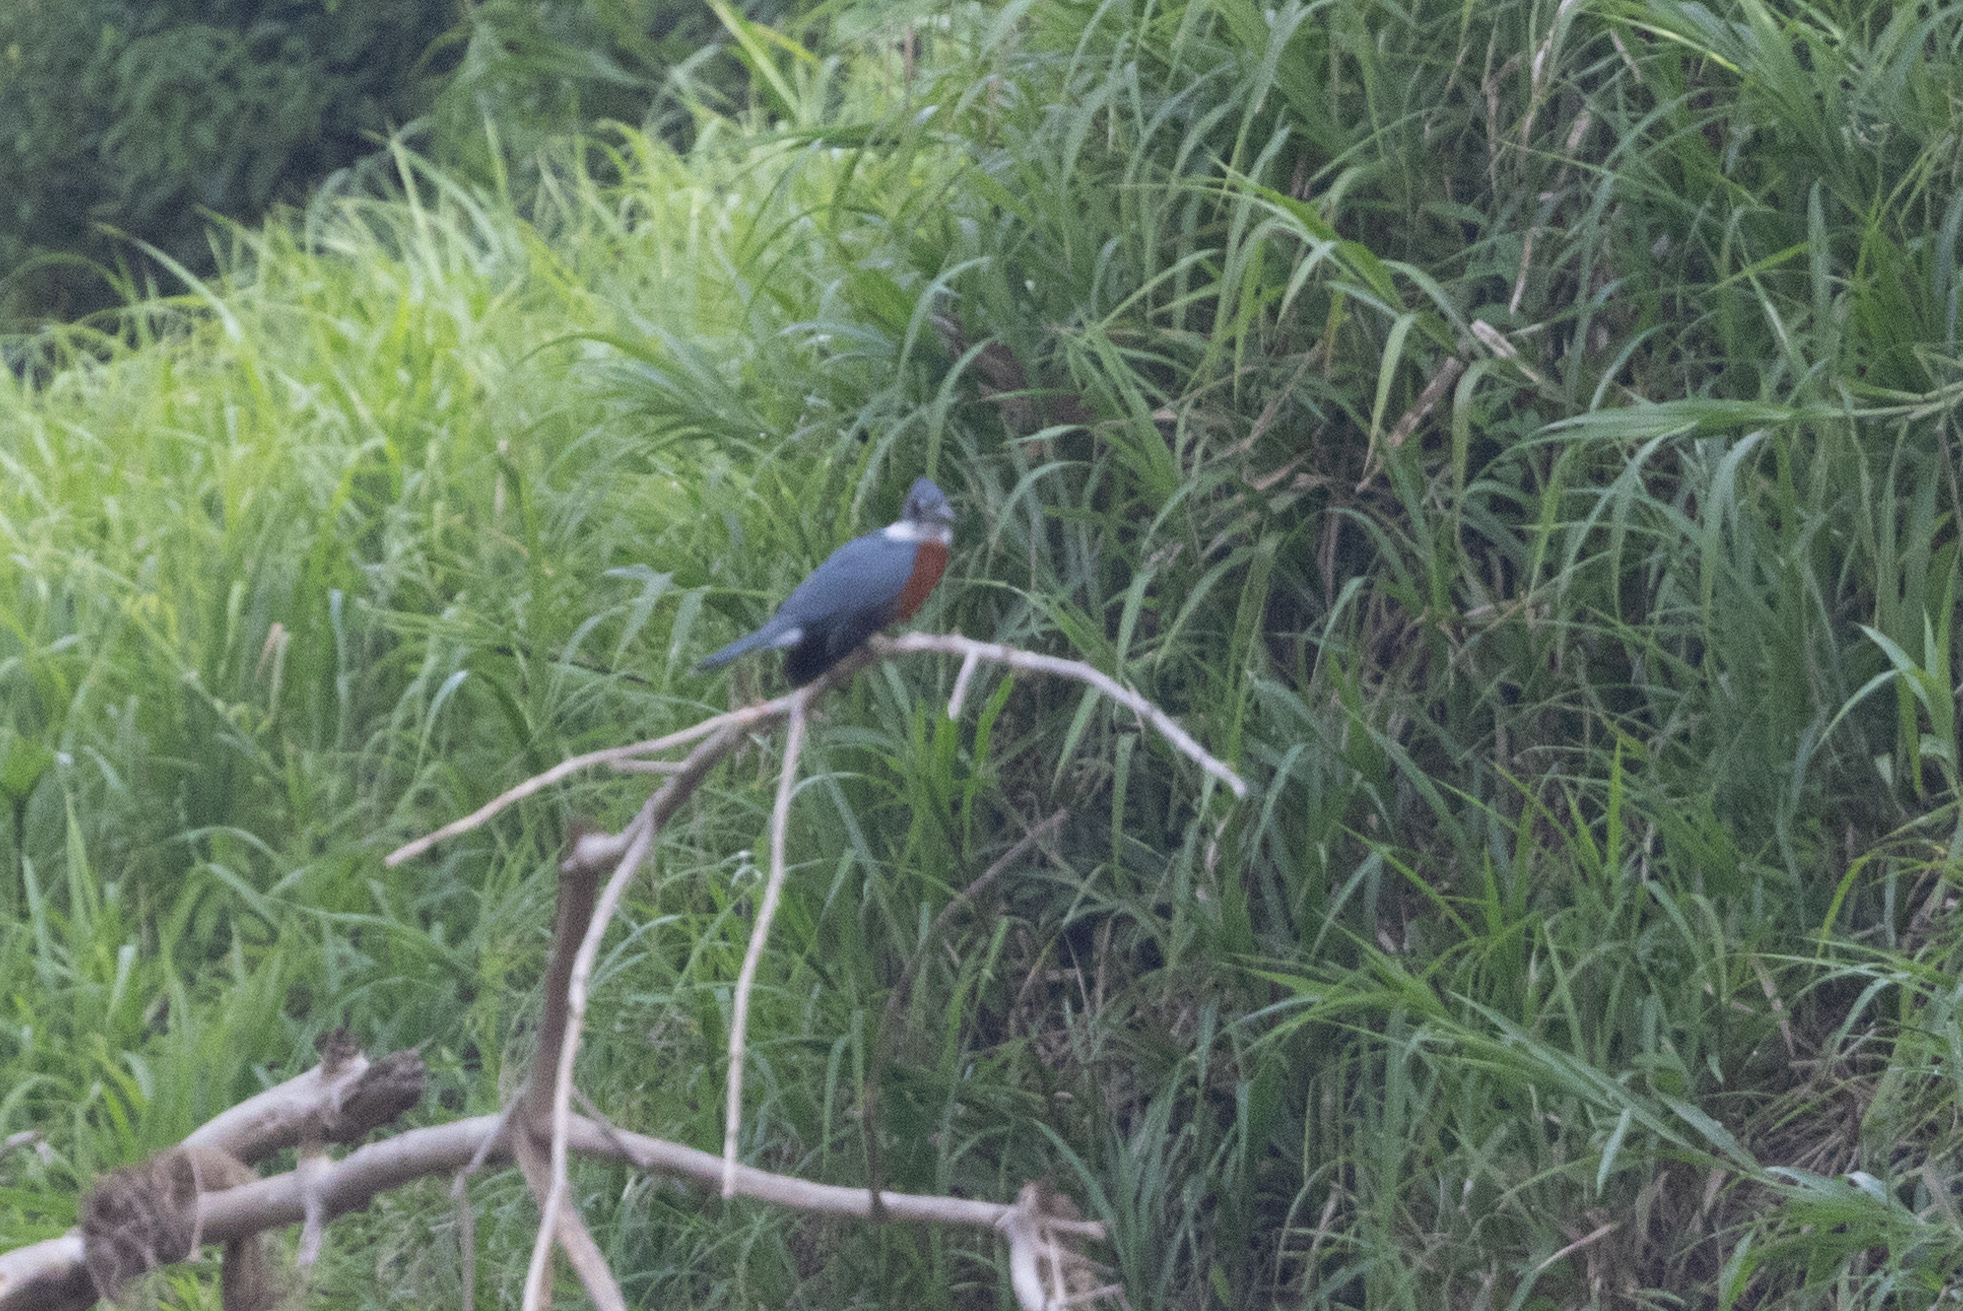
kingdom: Animalia
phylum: Chordata
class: Aves
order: Coraciiformes
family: Alcedinidae
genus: Megaceryle
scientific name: Megaceryle torquata
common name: Ringed kingfisher
